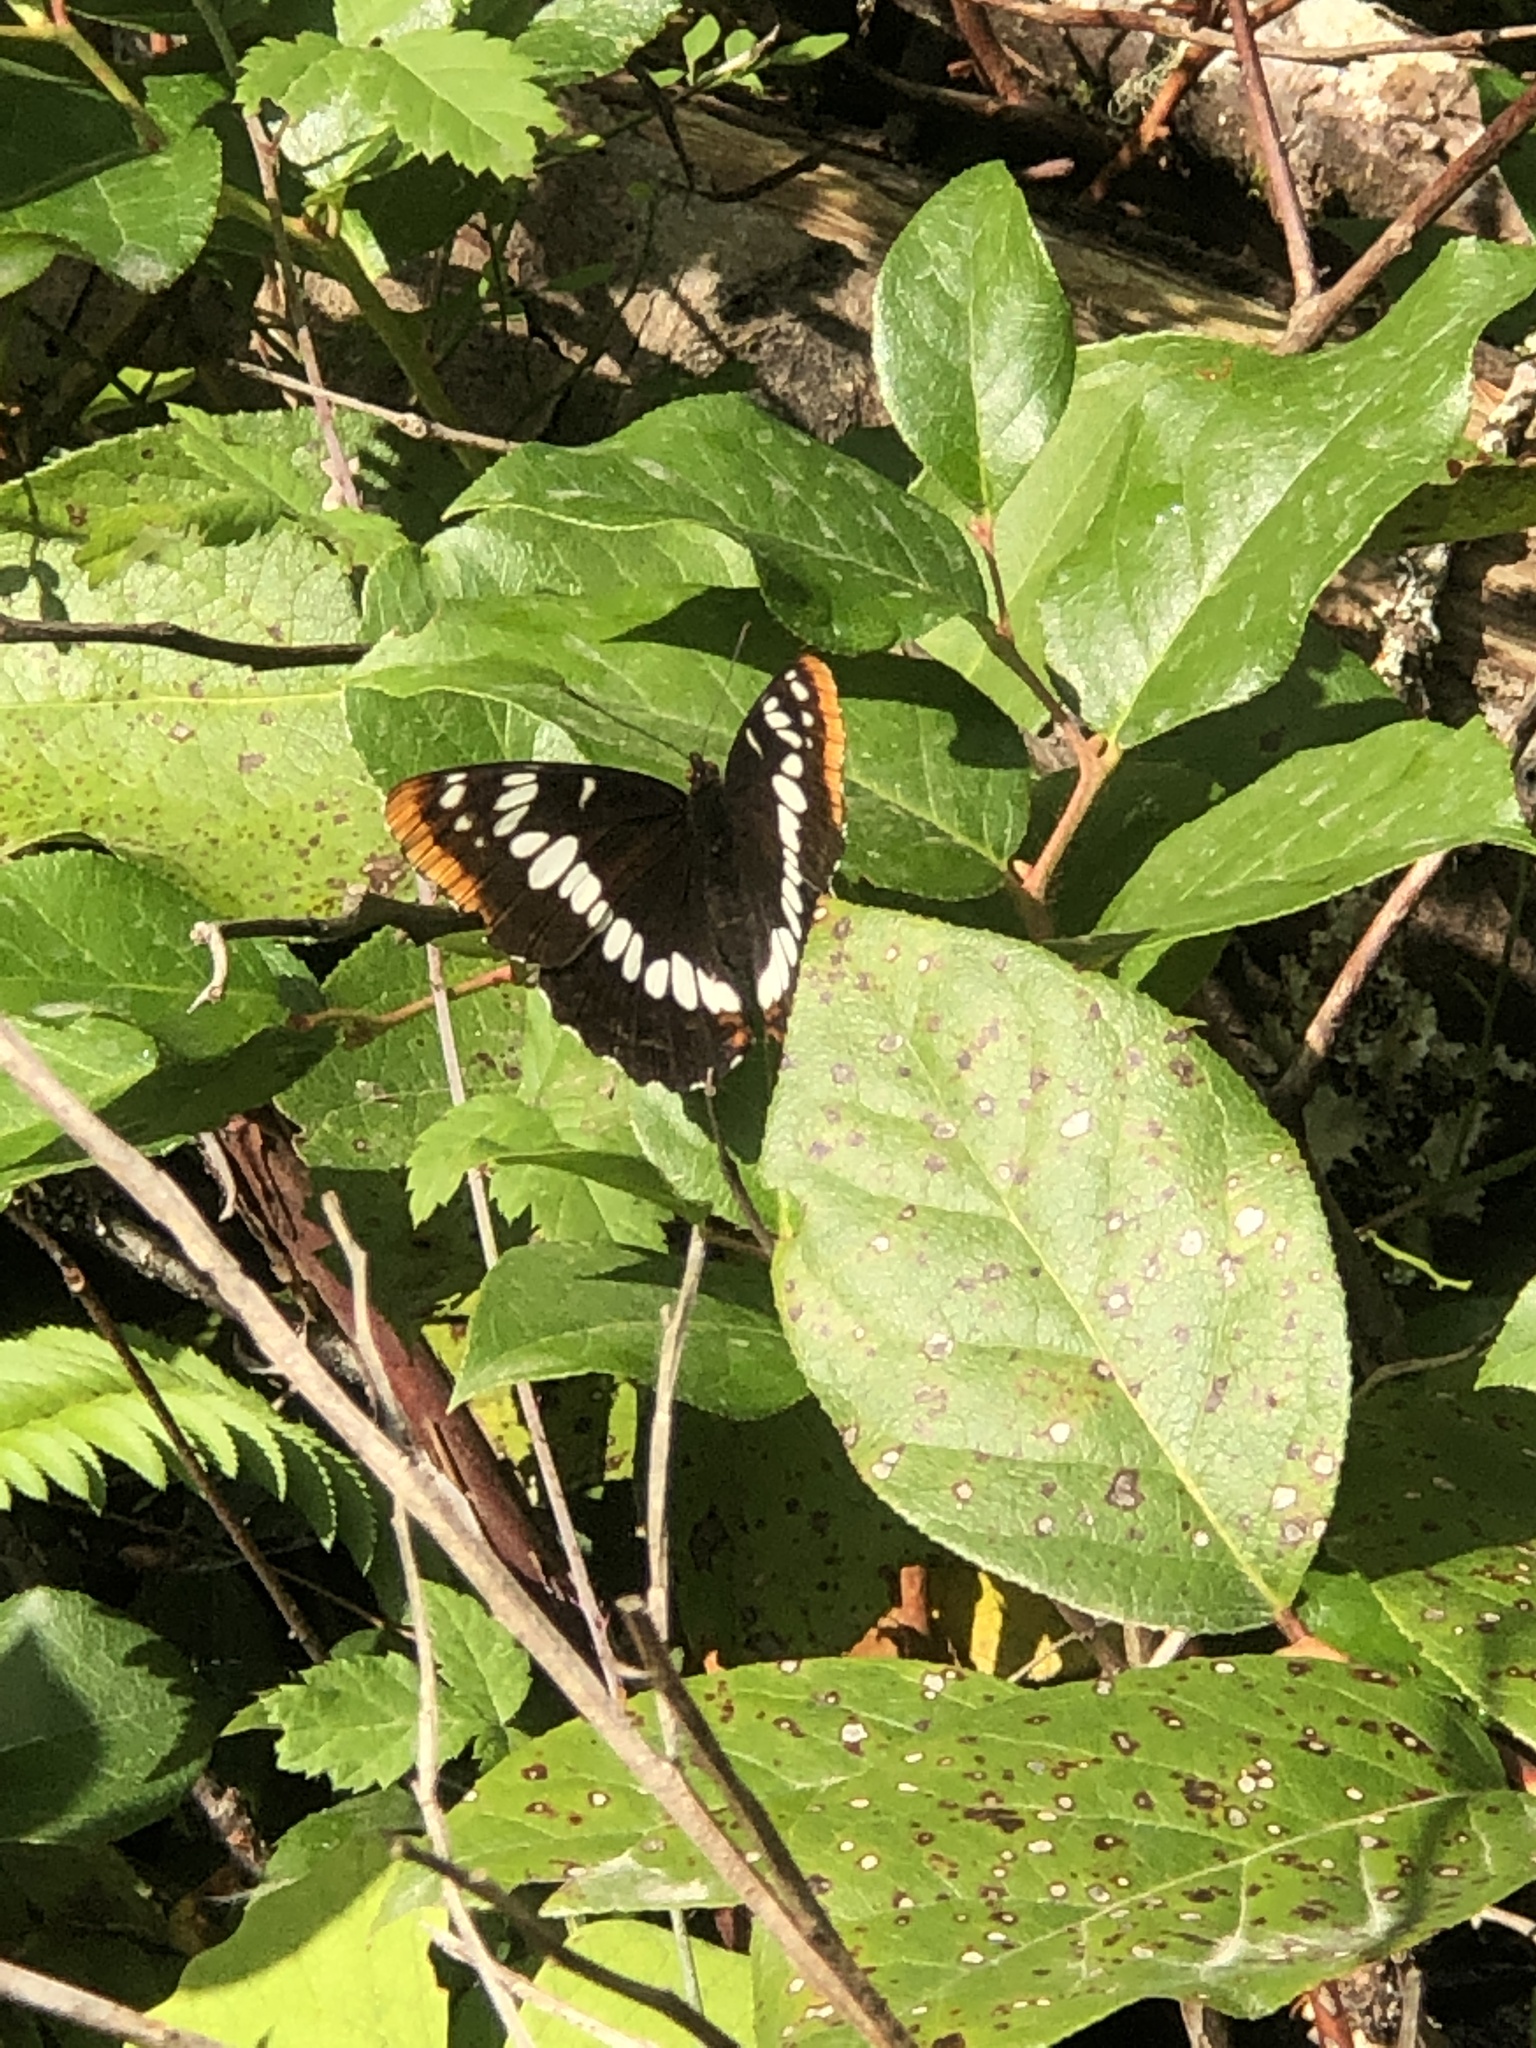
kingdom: Animalia
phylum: Arthropoda
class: Insecta
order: Lepidoptera
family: Nymphalidae
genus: Limenitis
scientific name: Limenitis lorquini
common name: Lorquin's admiral
